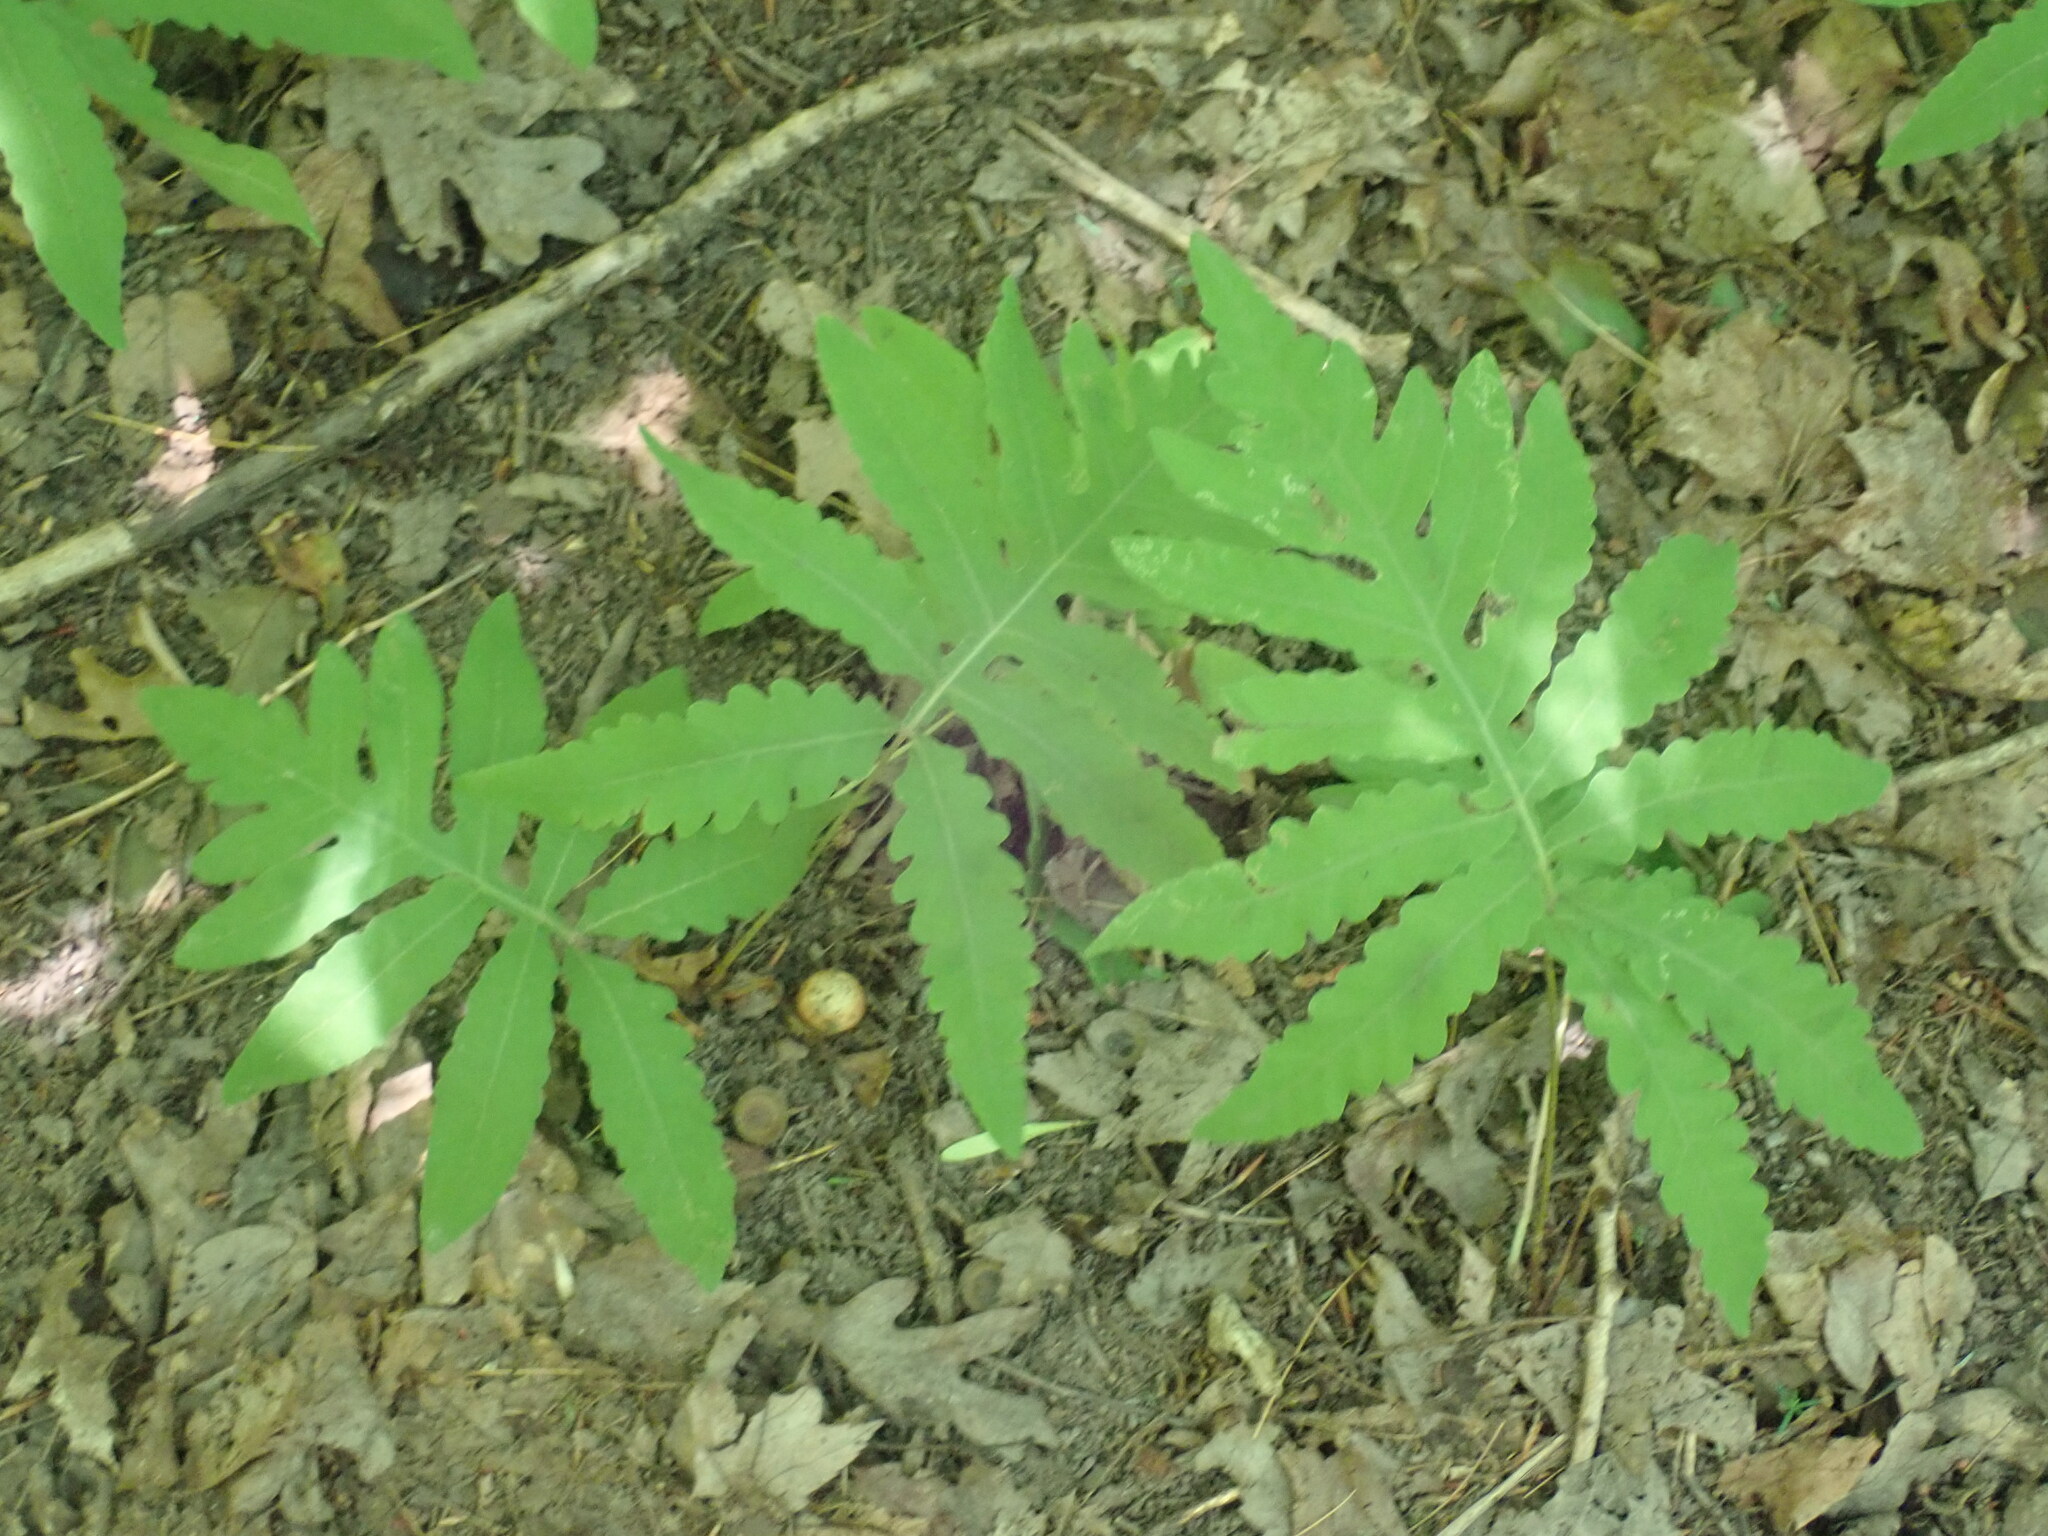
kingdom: Plantae
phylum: Tracheophyta
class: Polypodiopsida
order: Polypodiales
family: Onocleaceae
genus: Onoclea
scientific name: Onoclea sensibilis
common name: Sensitive fern
